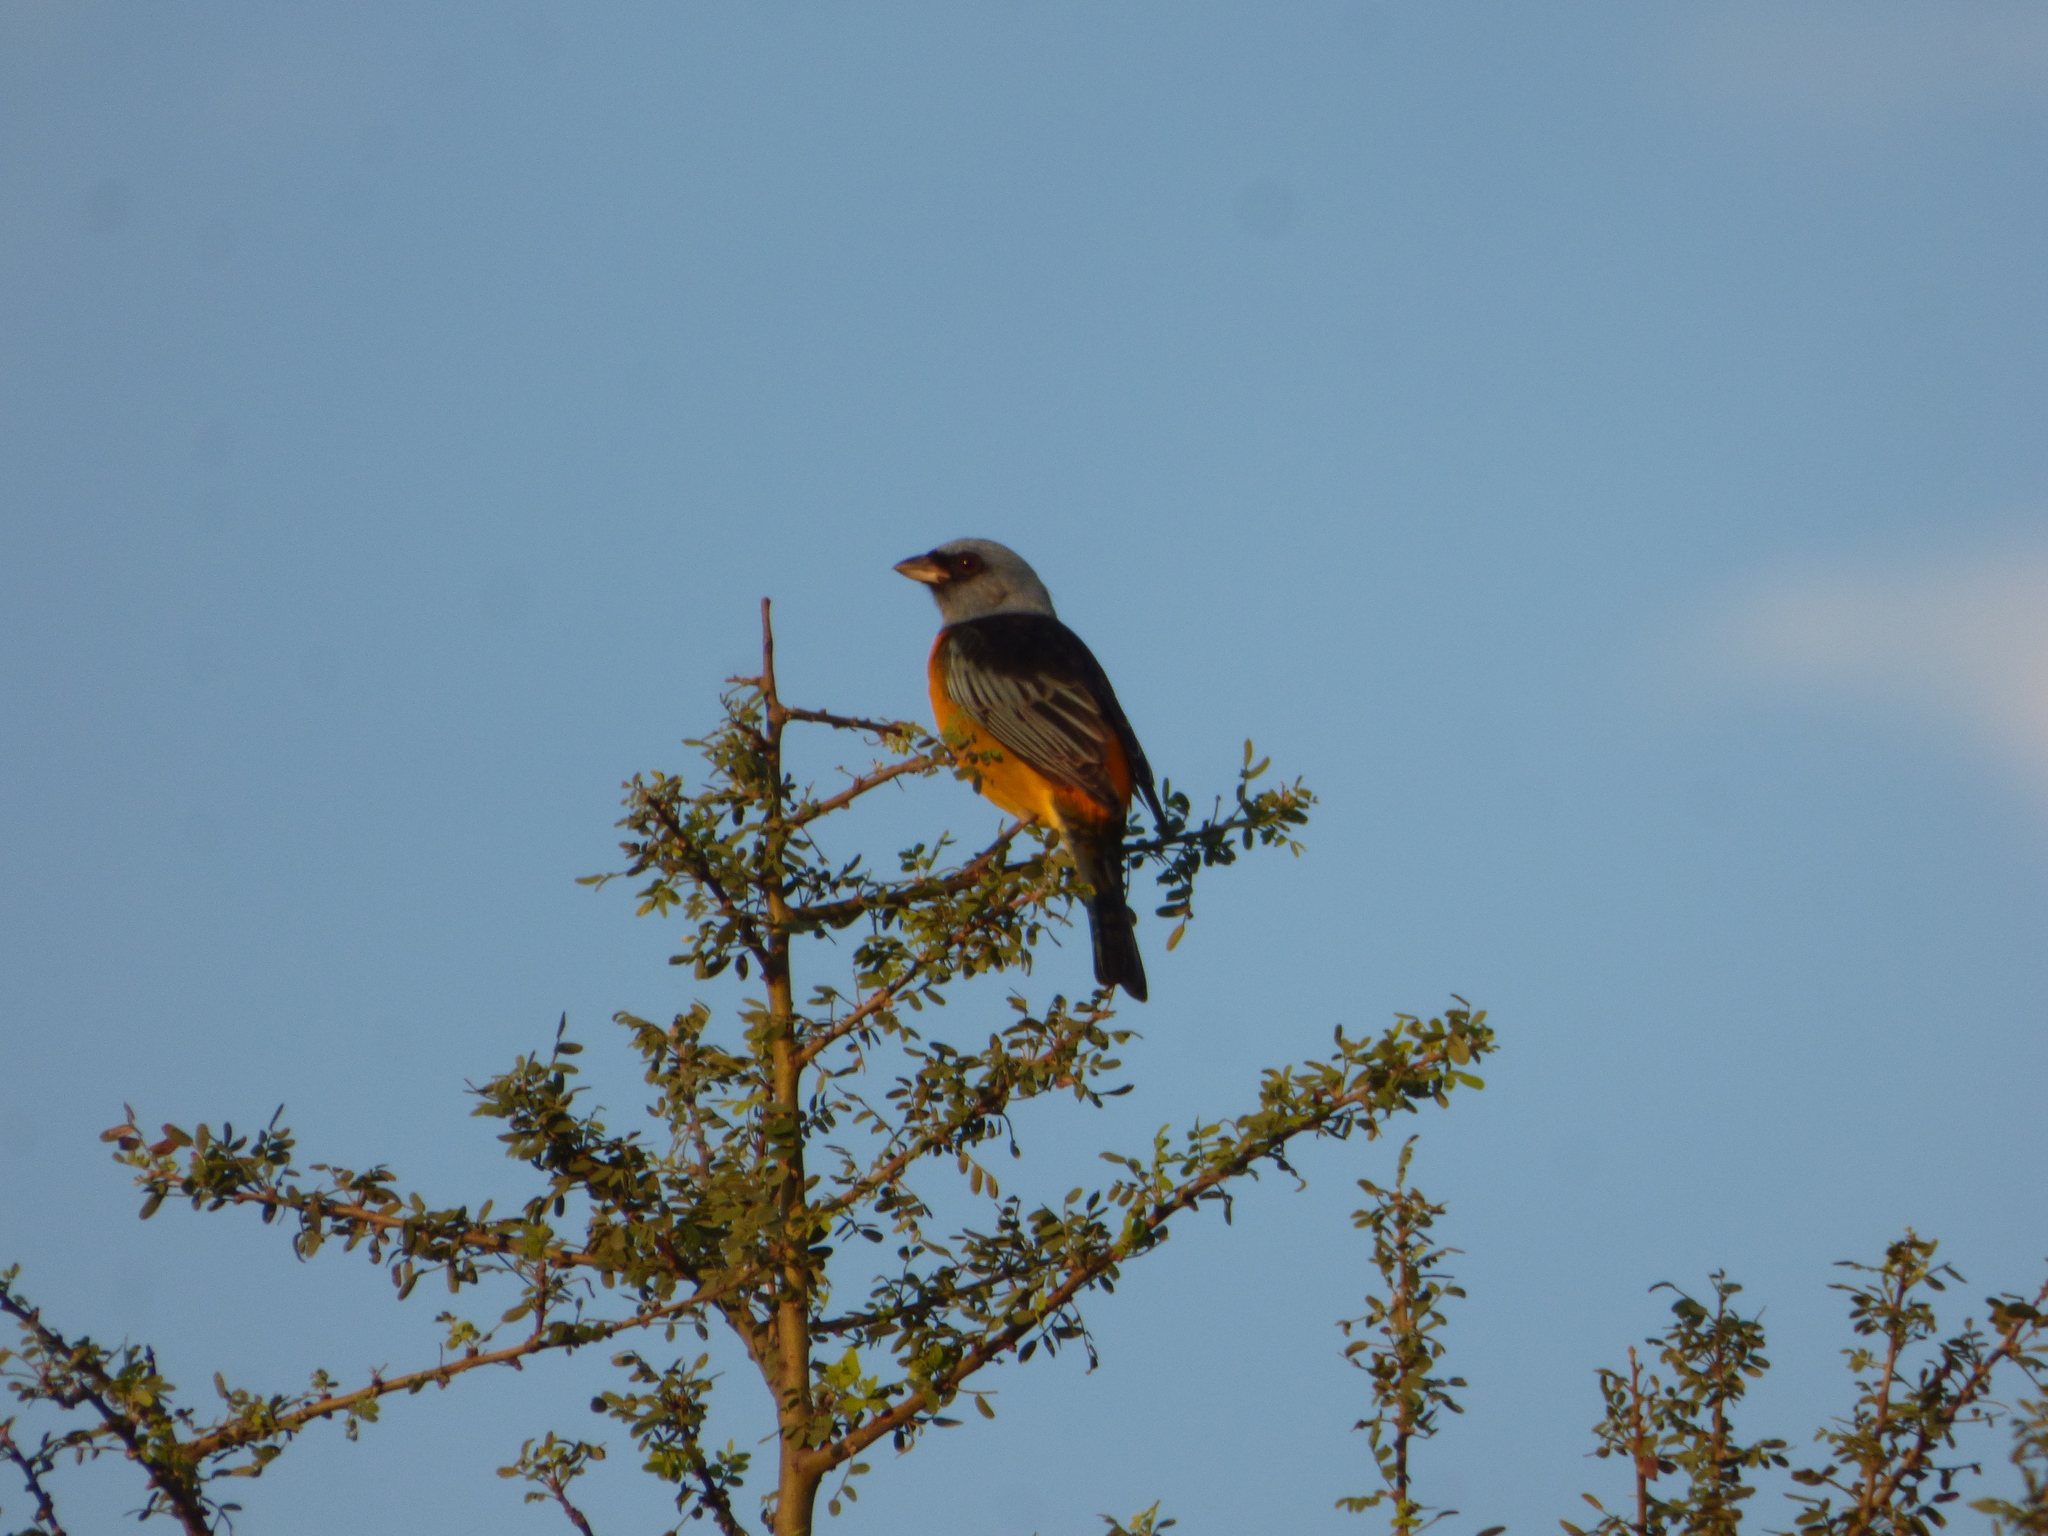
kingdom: Animalia
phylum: Chordata
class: Aves
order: Passeriformes
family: Thraupidae
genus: Rauenia
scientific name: Rauenia bonariensis
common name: Blue-and-yellow tanager
